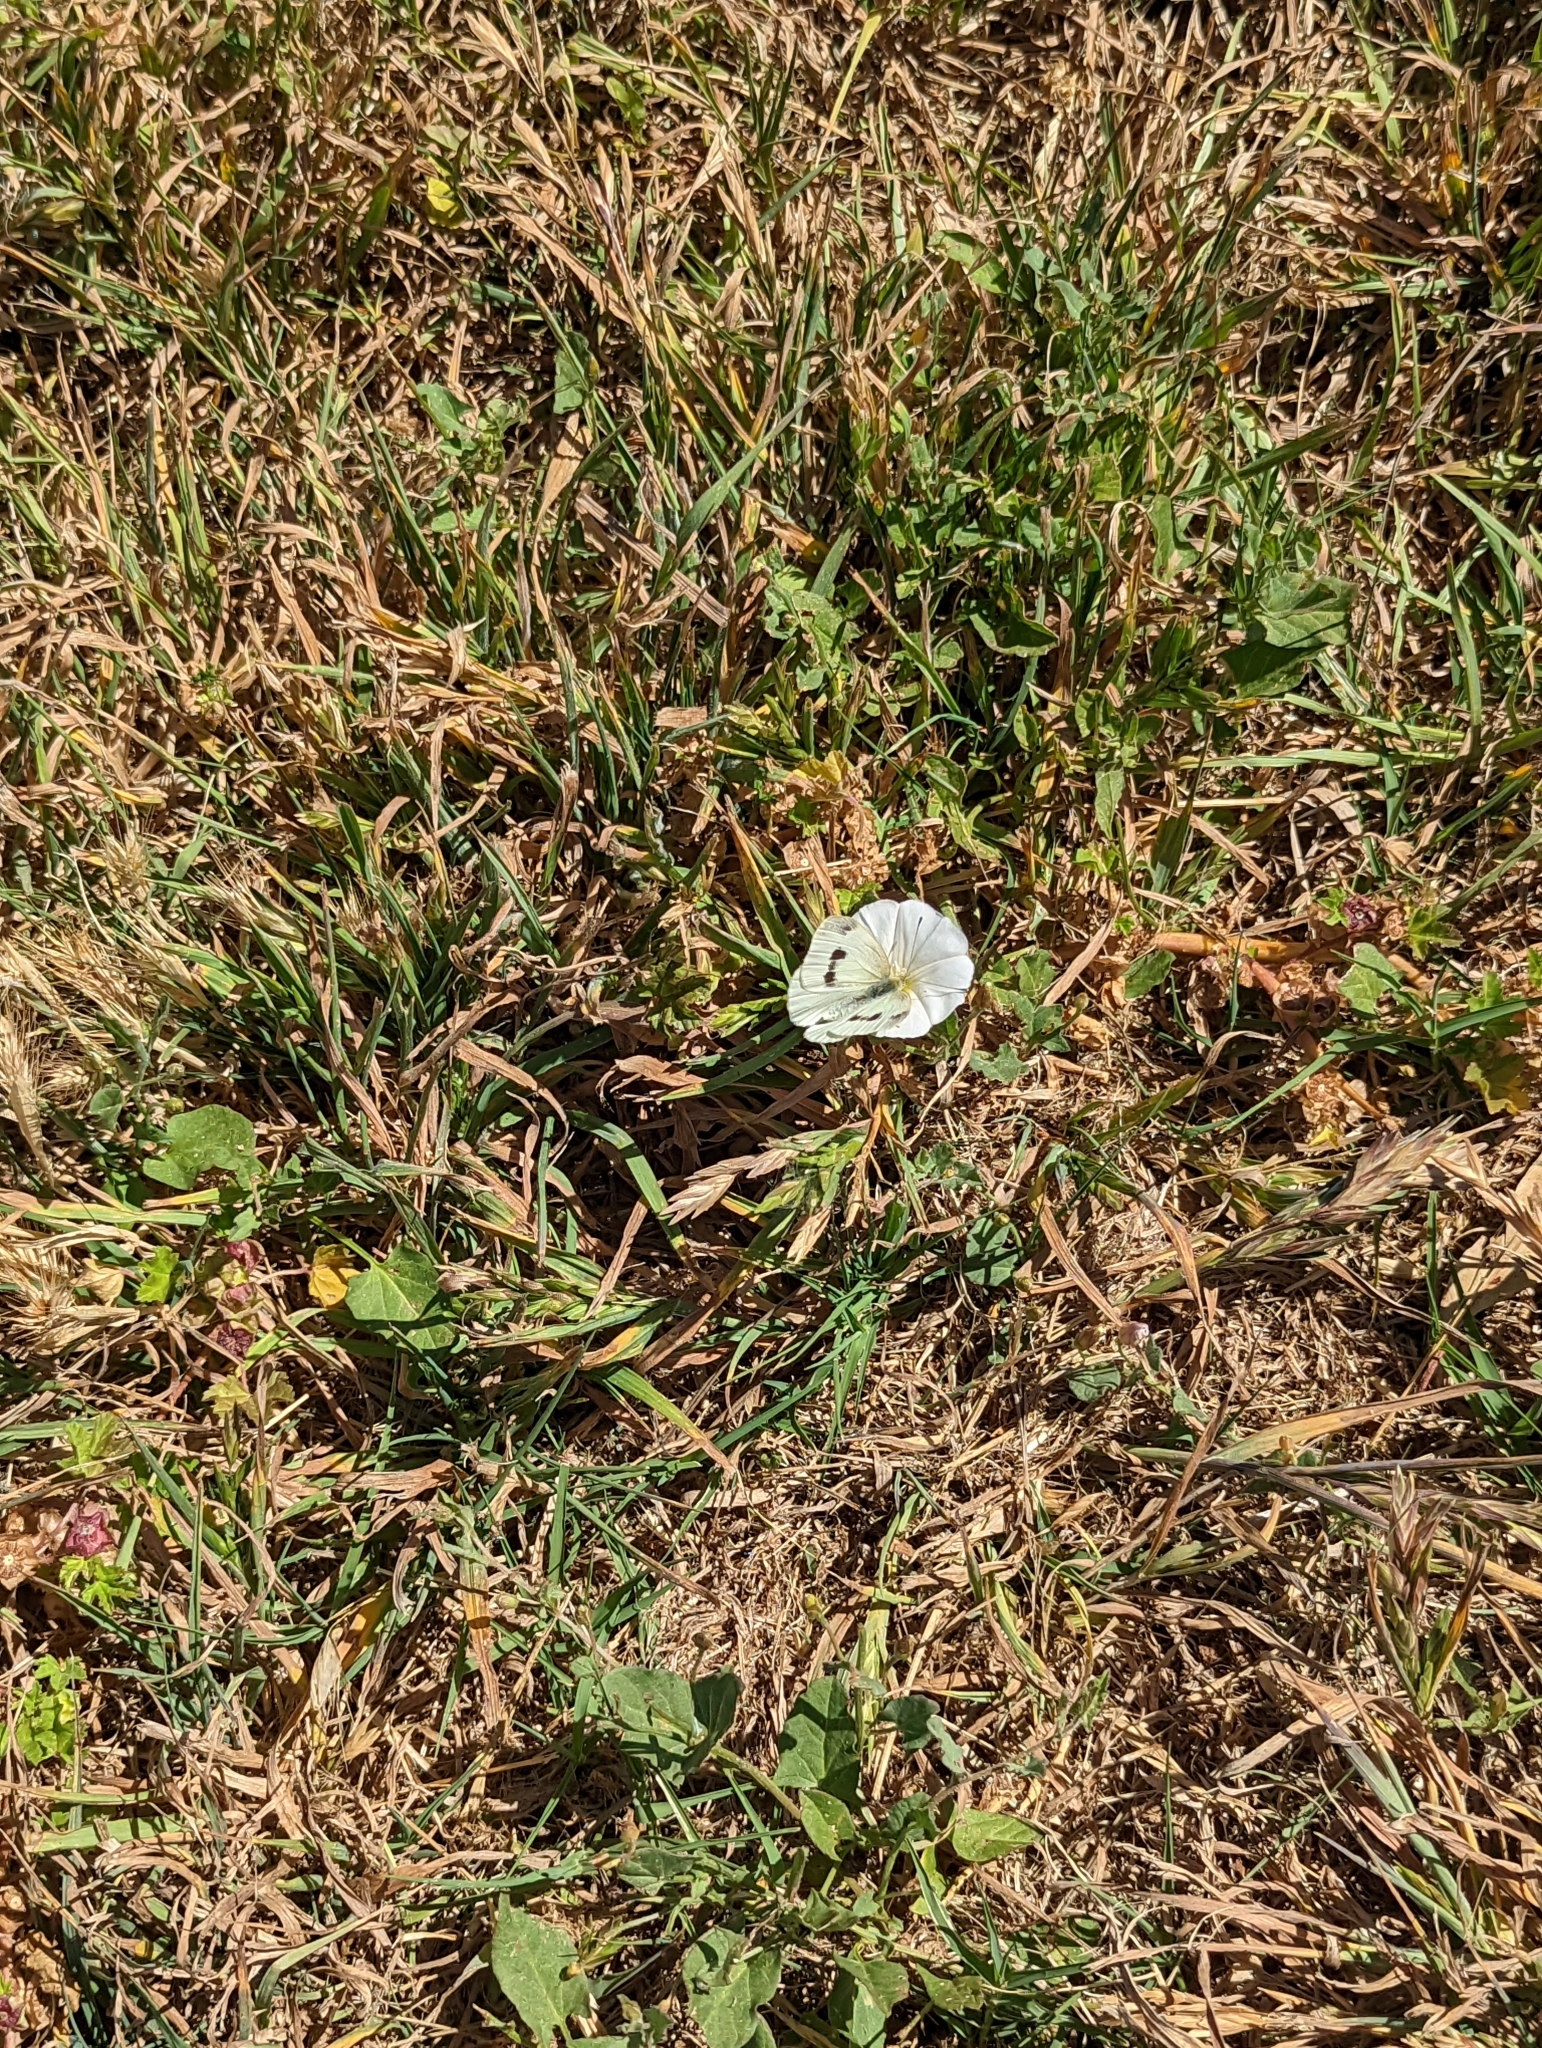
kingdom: Animalia
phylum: Arthropoda
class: Insecta
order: Lepidoptera
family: Pieridae
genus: Pieris
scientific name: Pieris rapae
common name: Small white
